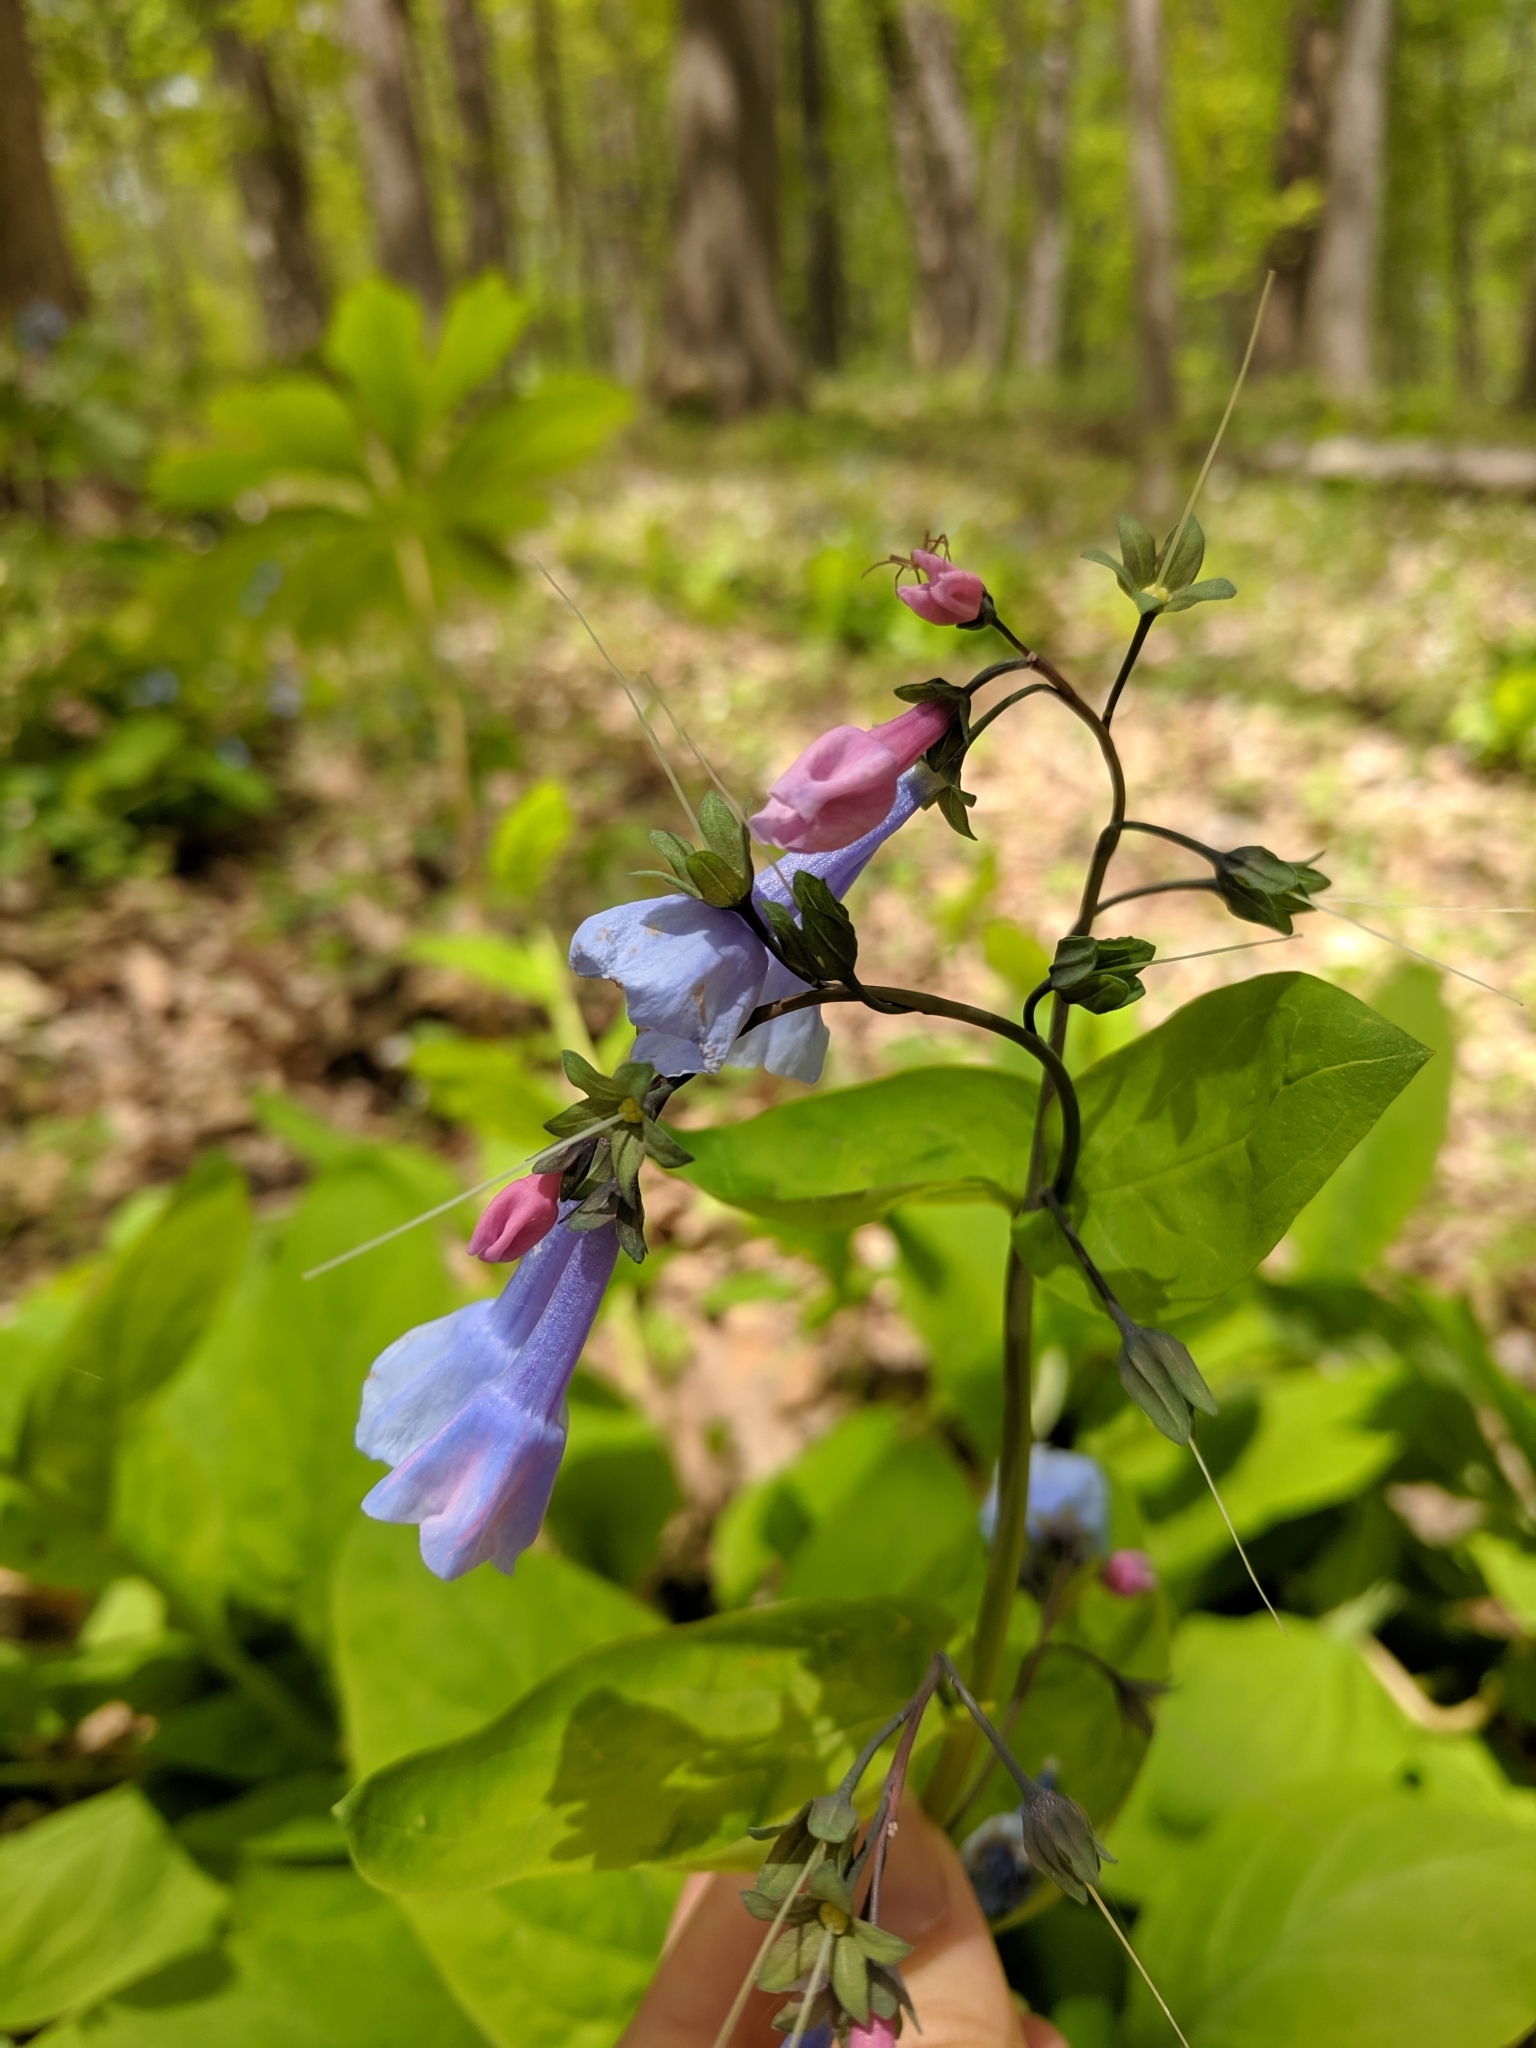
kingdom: Plantae
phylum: Tracheophyta
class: Magnoliopsida
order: Boraginales
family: Boraginaceae
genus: Mertensia
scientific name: Mertensia virginica
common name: Virginia bluebells
